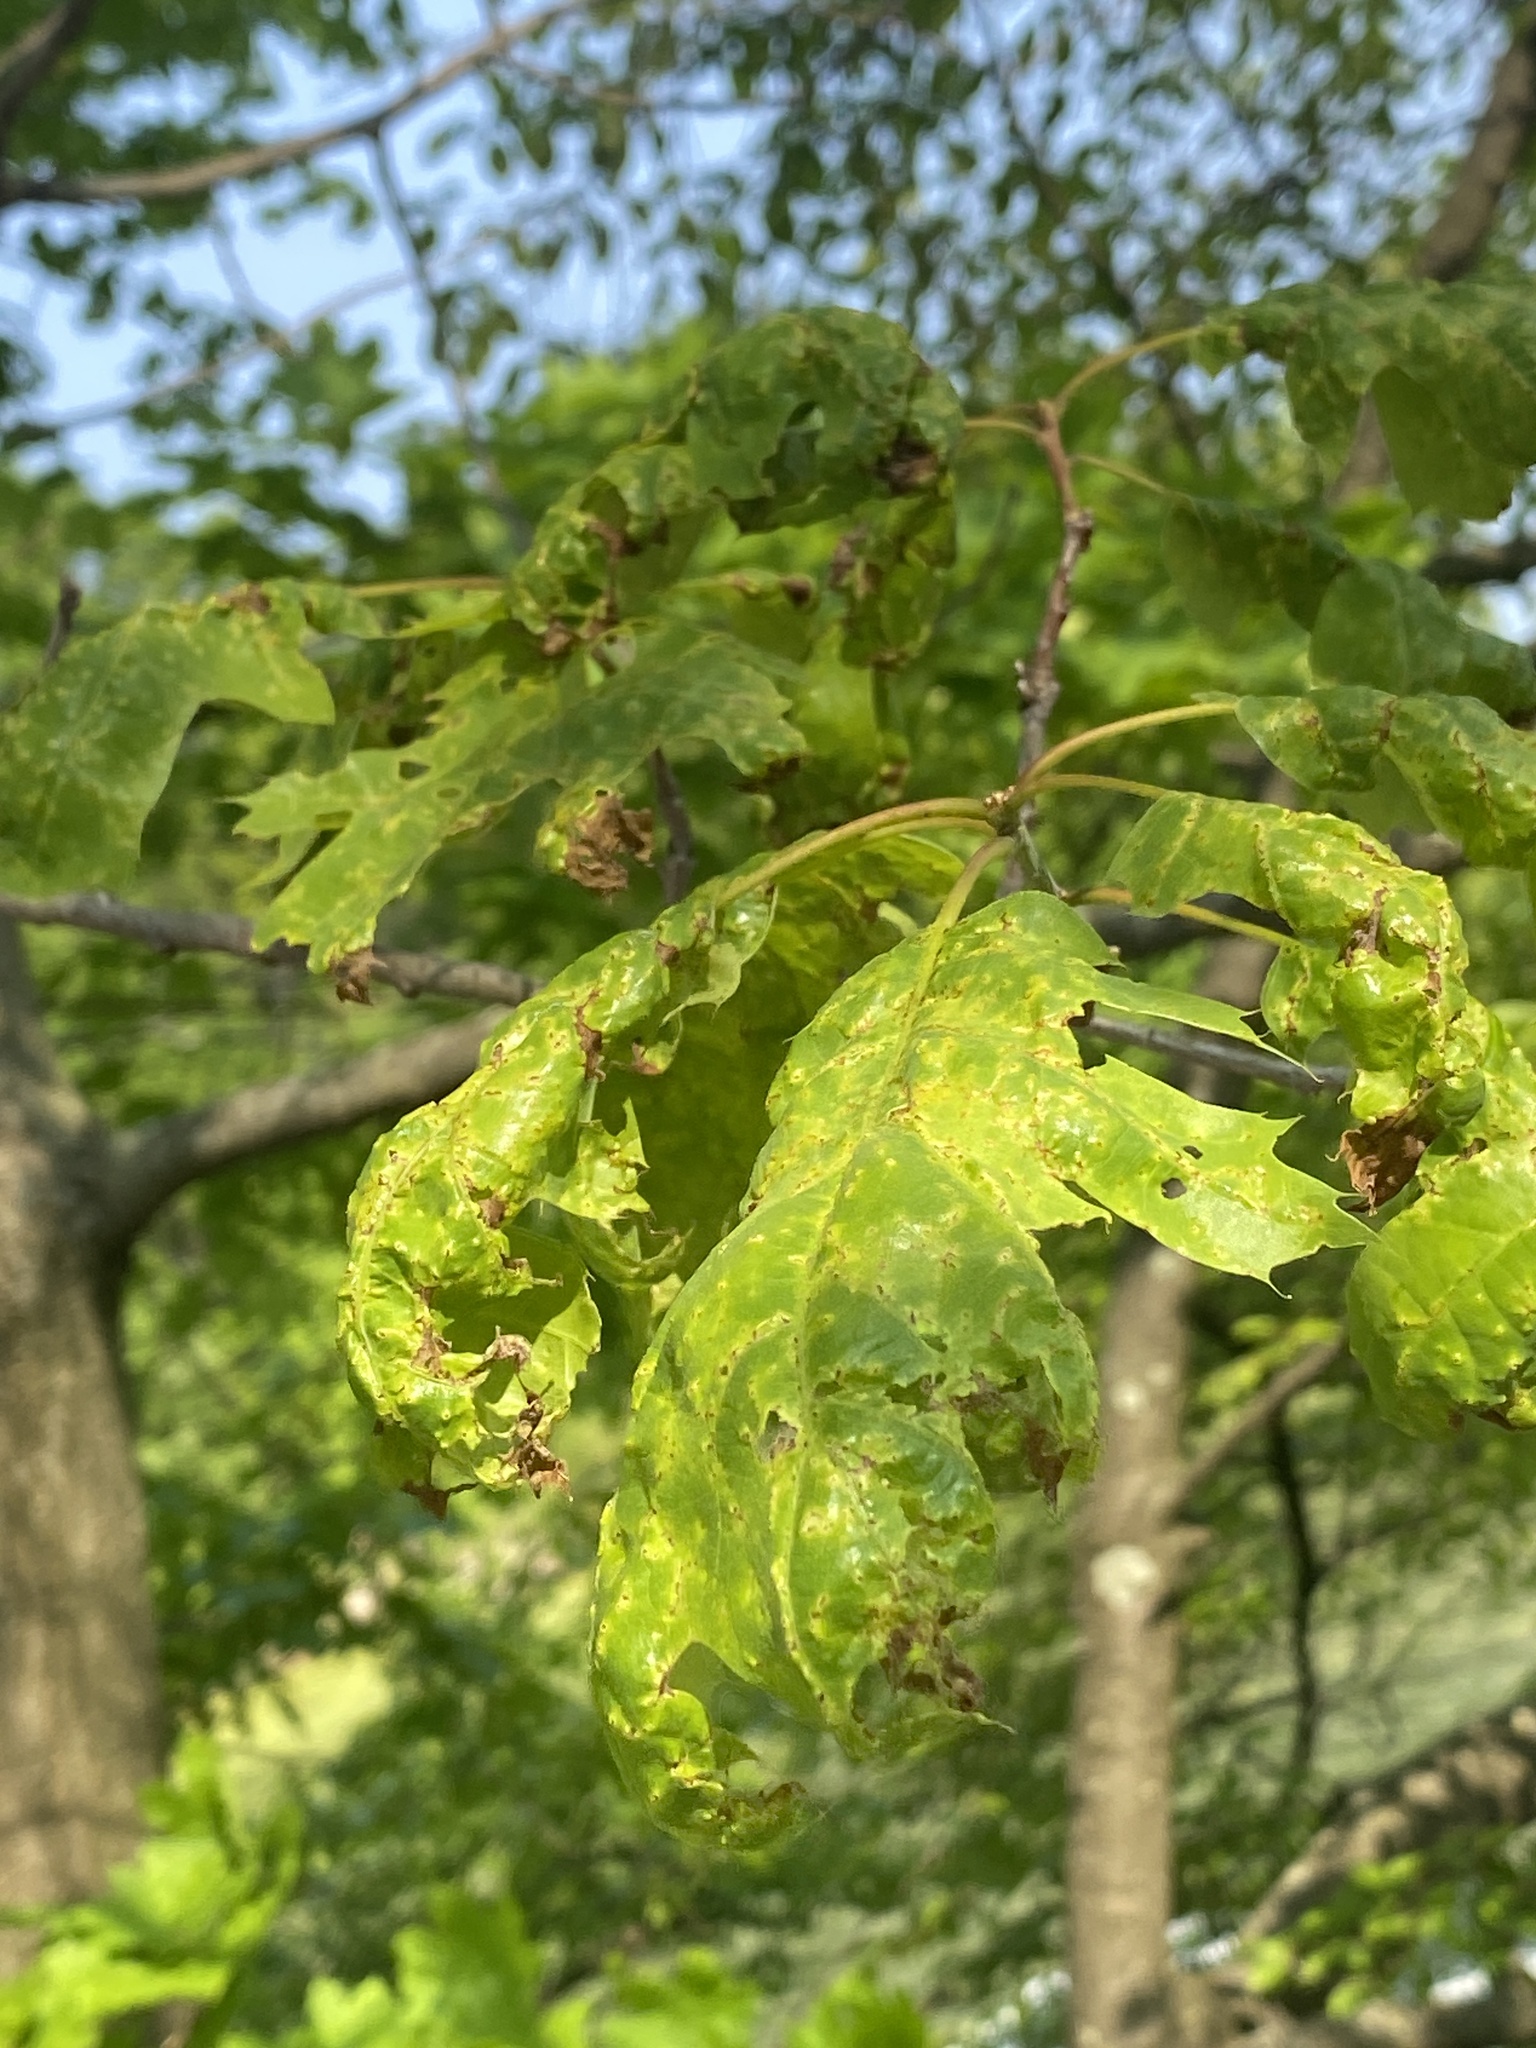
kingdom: Fungi
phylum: Ascomycota
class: Taphrinomycetes
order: Taphrinales
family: Taphrinaceae
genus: Taphrina
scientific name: Taphrina caerulescens
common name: Oak leaf blister
